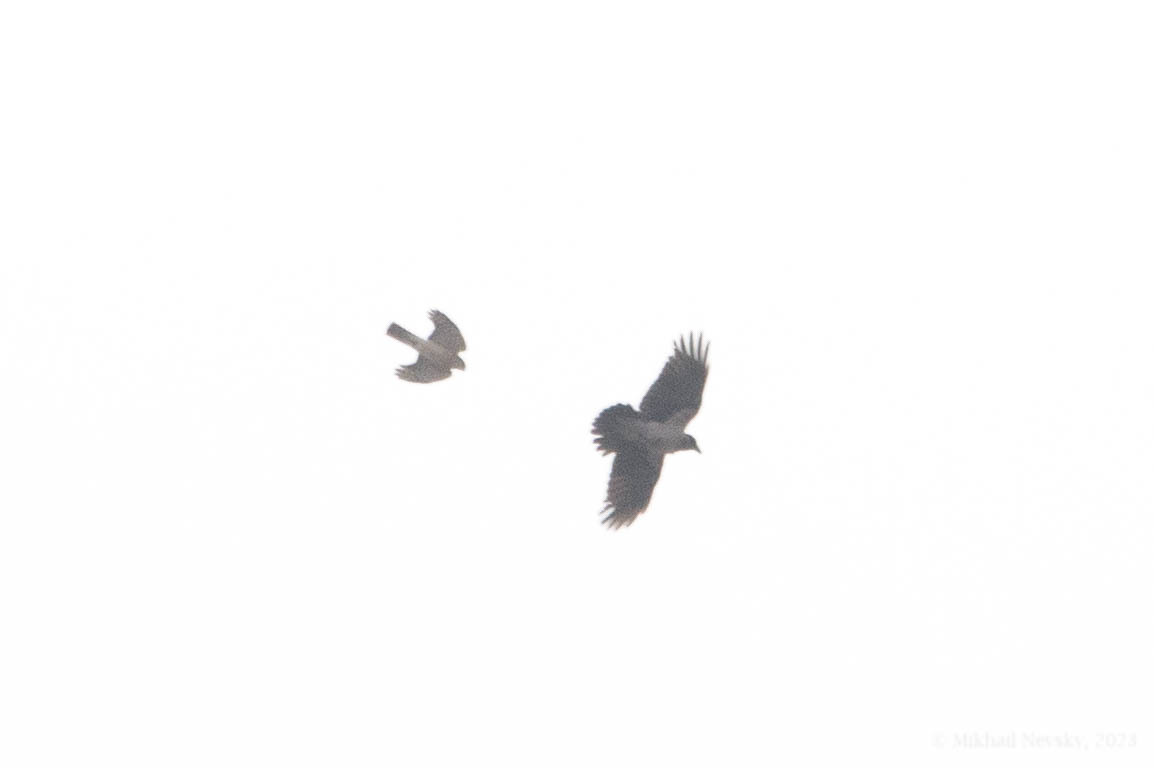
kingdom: Animalia
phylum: Chordata
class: Aves
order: Accipitriformes
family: Accipitridae
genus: Accipiter
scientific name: Accipiter nisus
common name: Eurasian sparrowhawk
